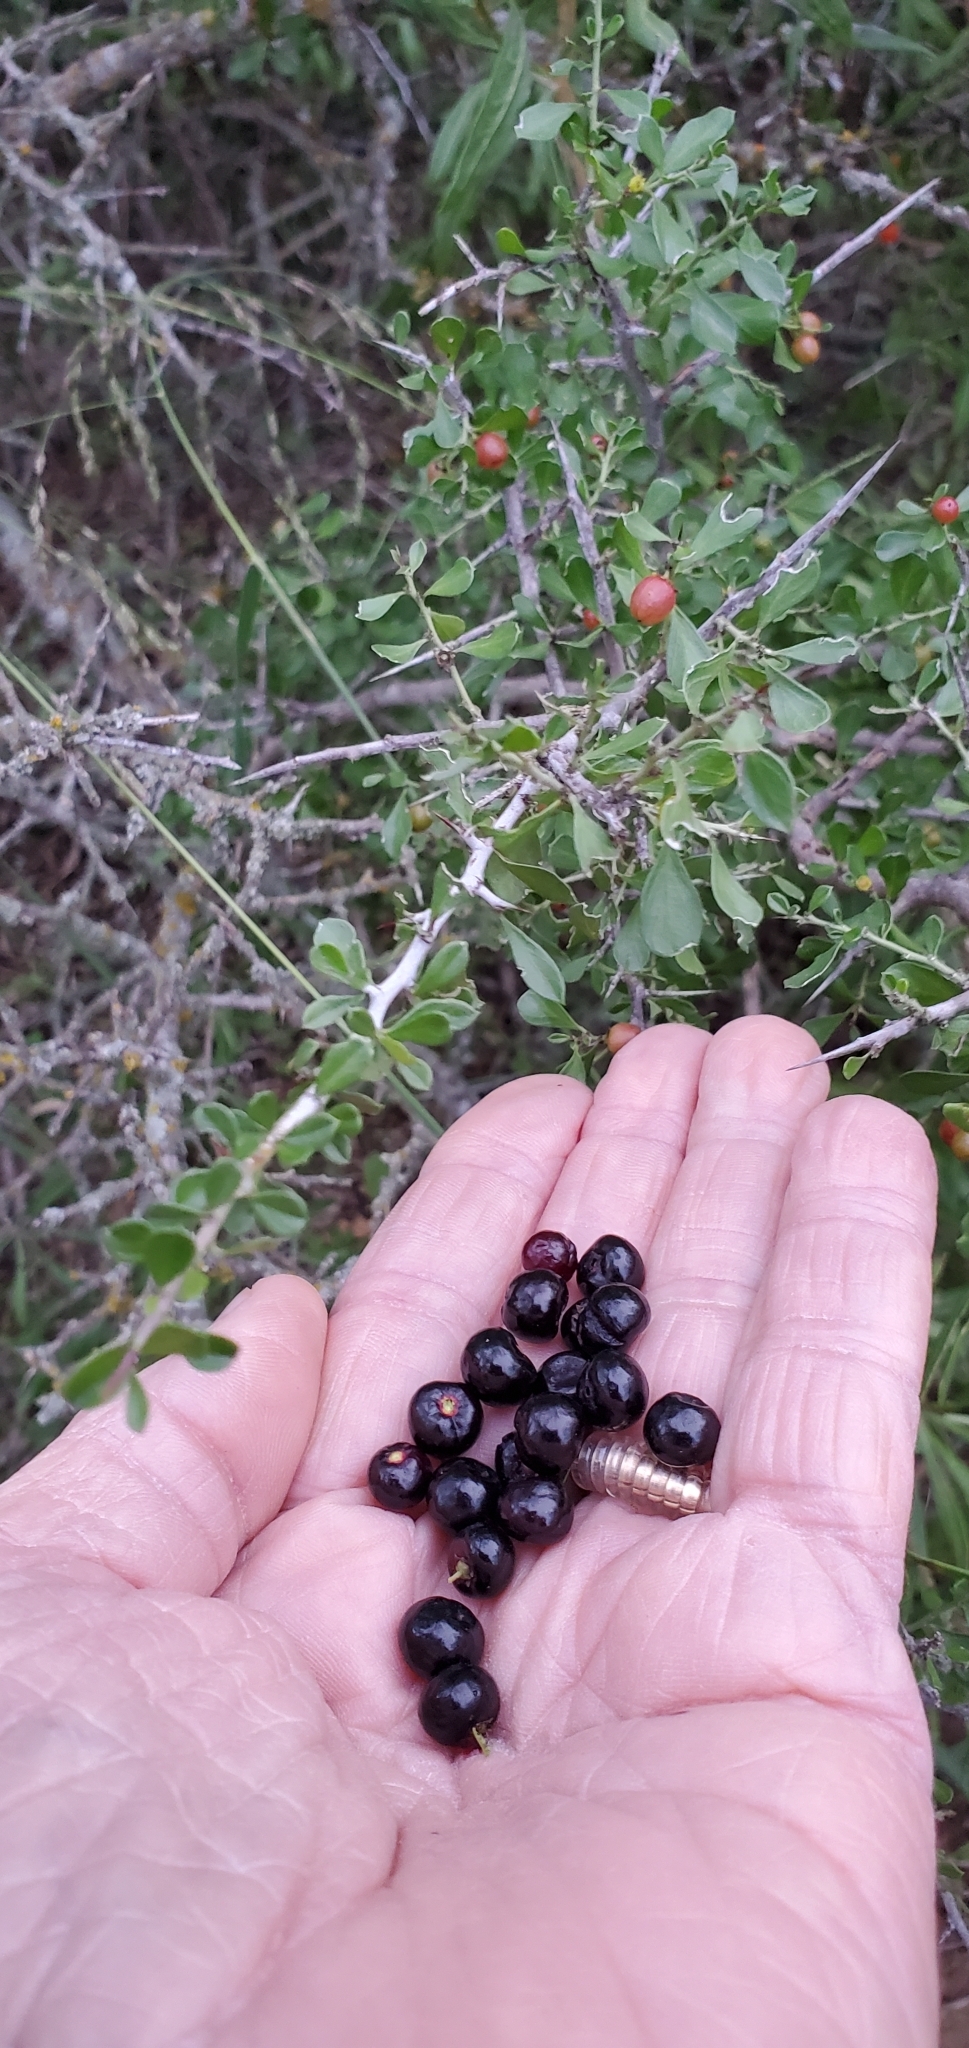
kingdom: Plantae
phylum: Tracheophyta
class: Magnoliopsida
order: Rosales
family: Rhamnaceae
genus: Condalia
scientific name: Condalia viridis
